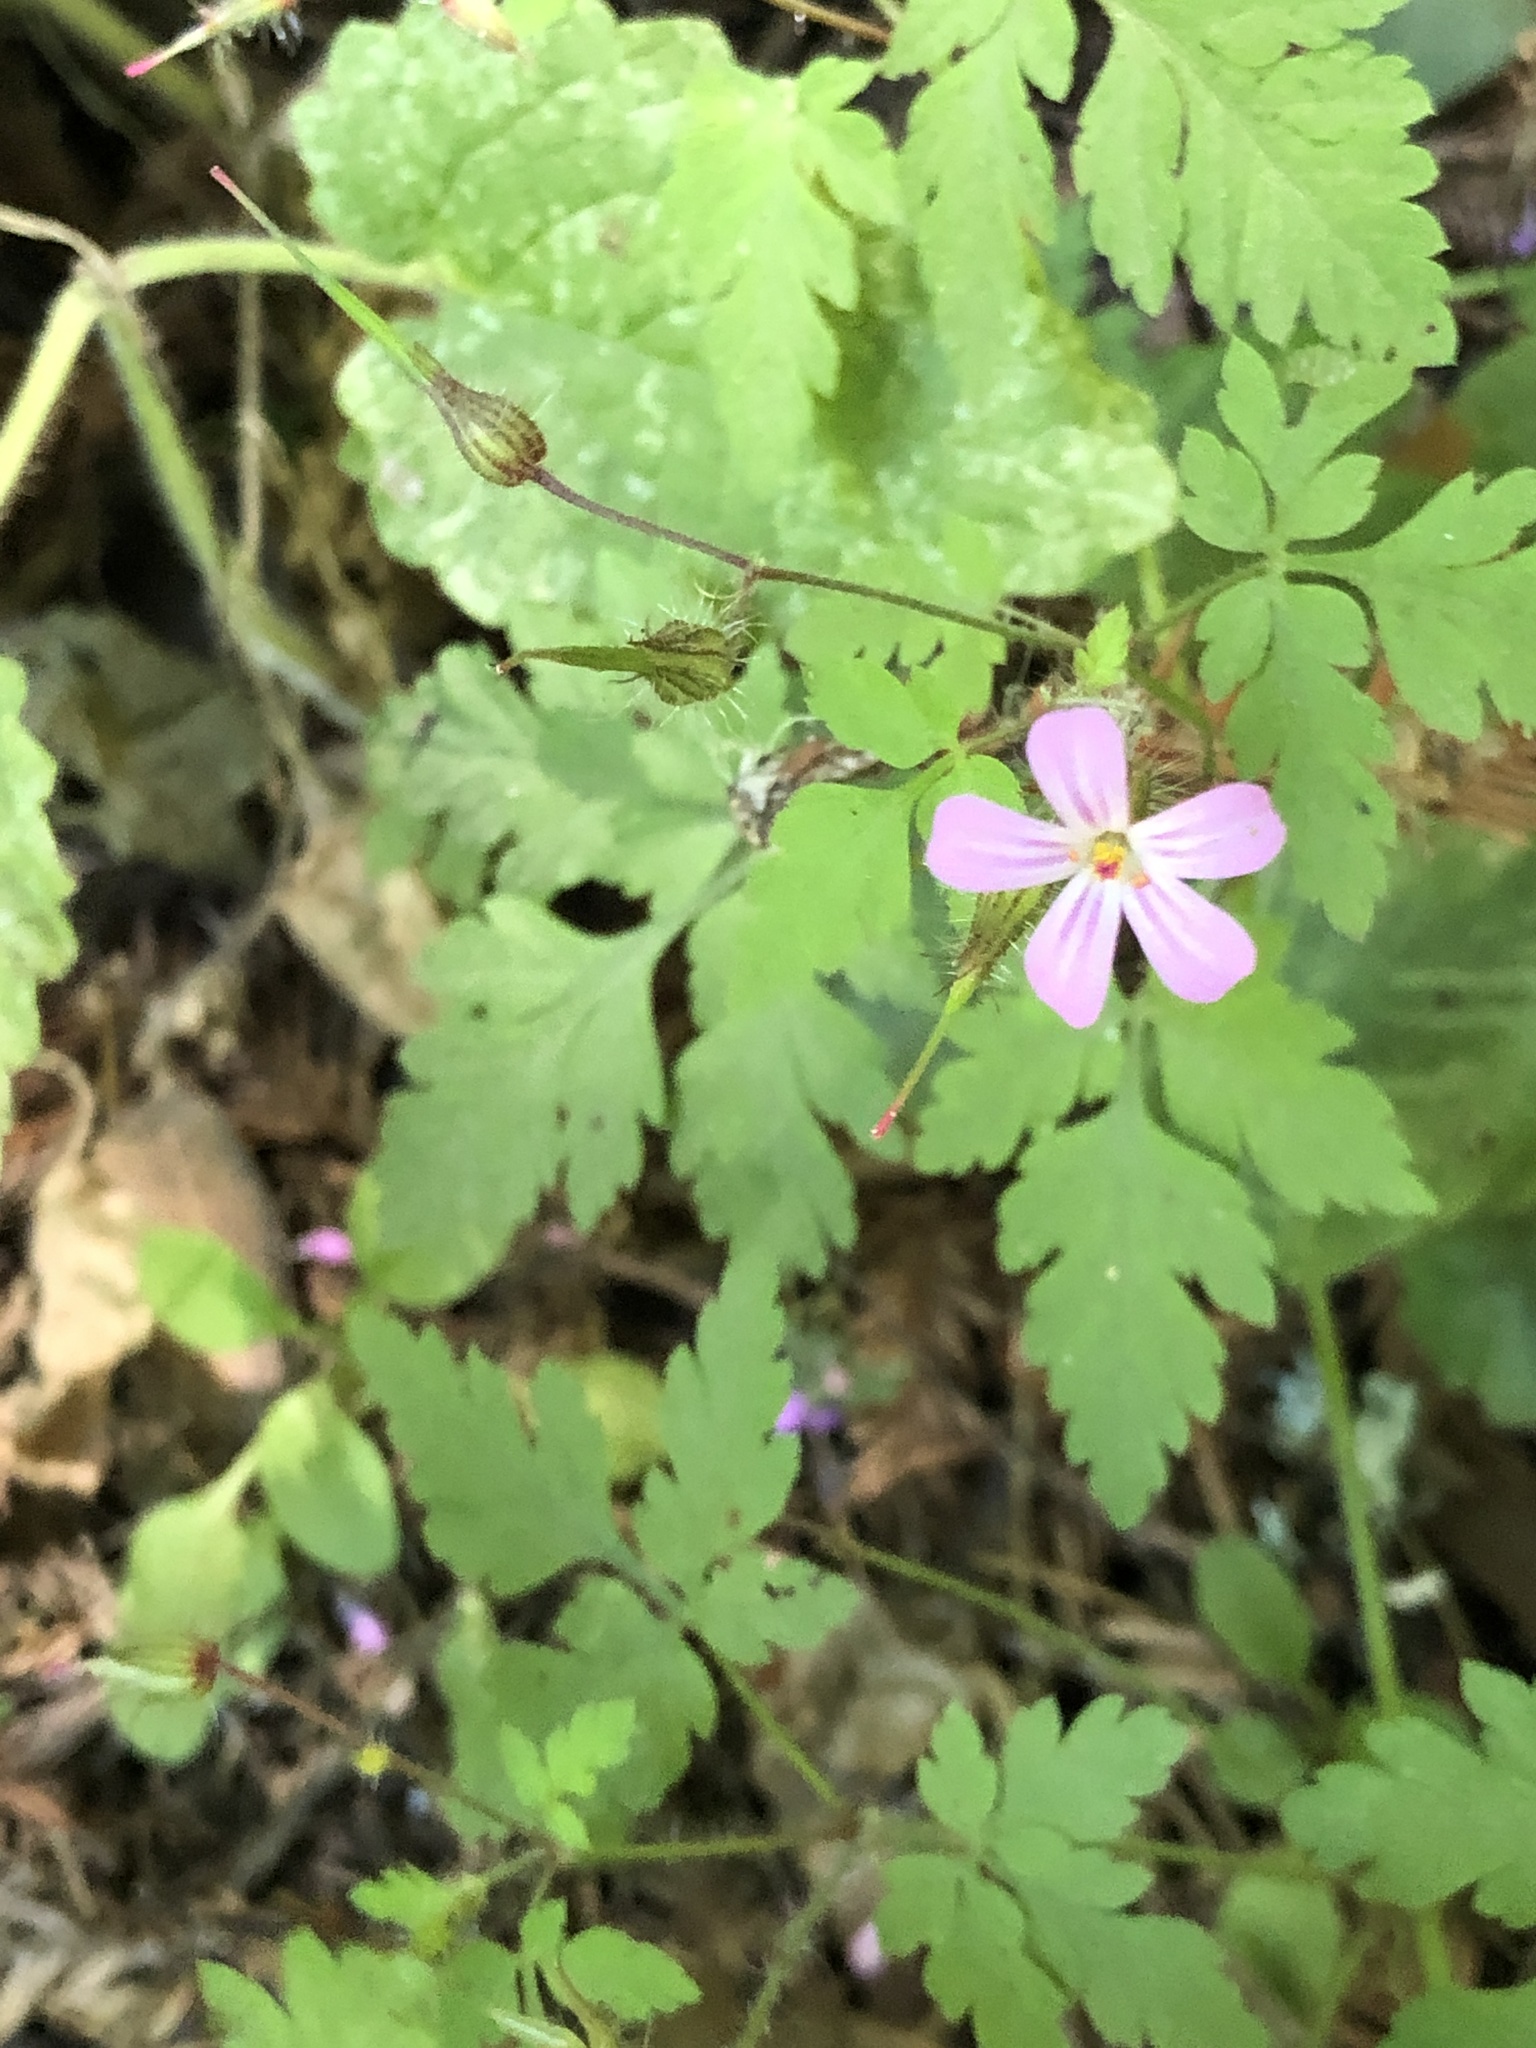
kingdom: Plantae
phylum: Tracheophyta
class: Magnoliopsida
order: Geraniales
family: Geraniaceae
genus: Geranium
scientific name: Geranium robertianum
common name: Herb-robert
